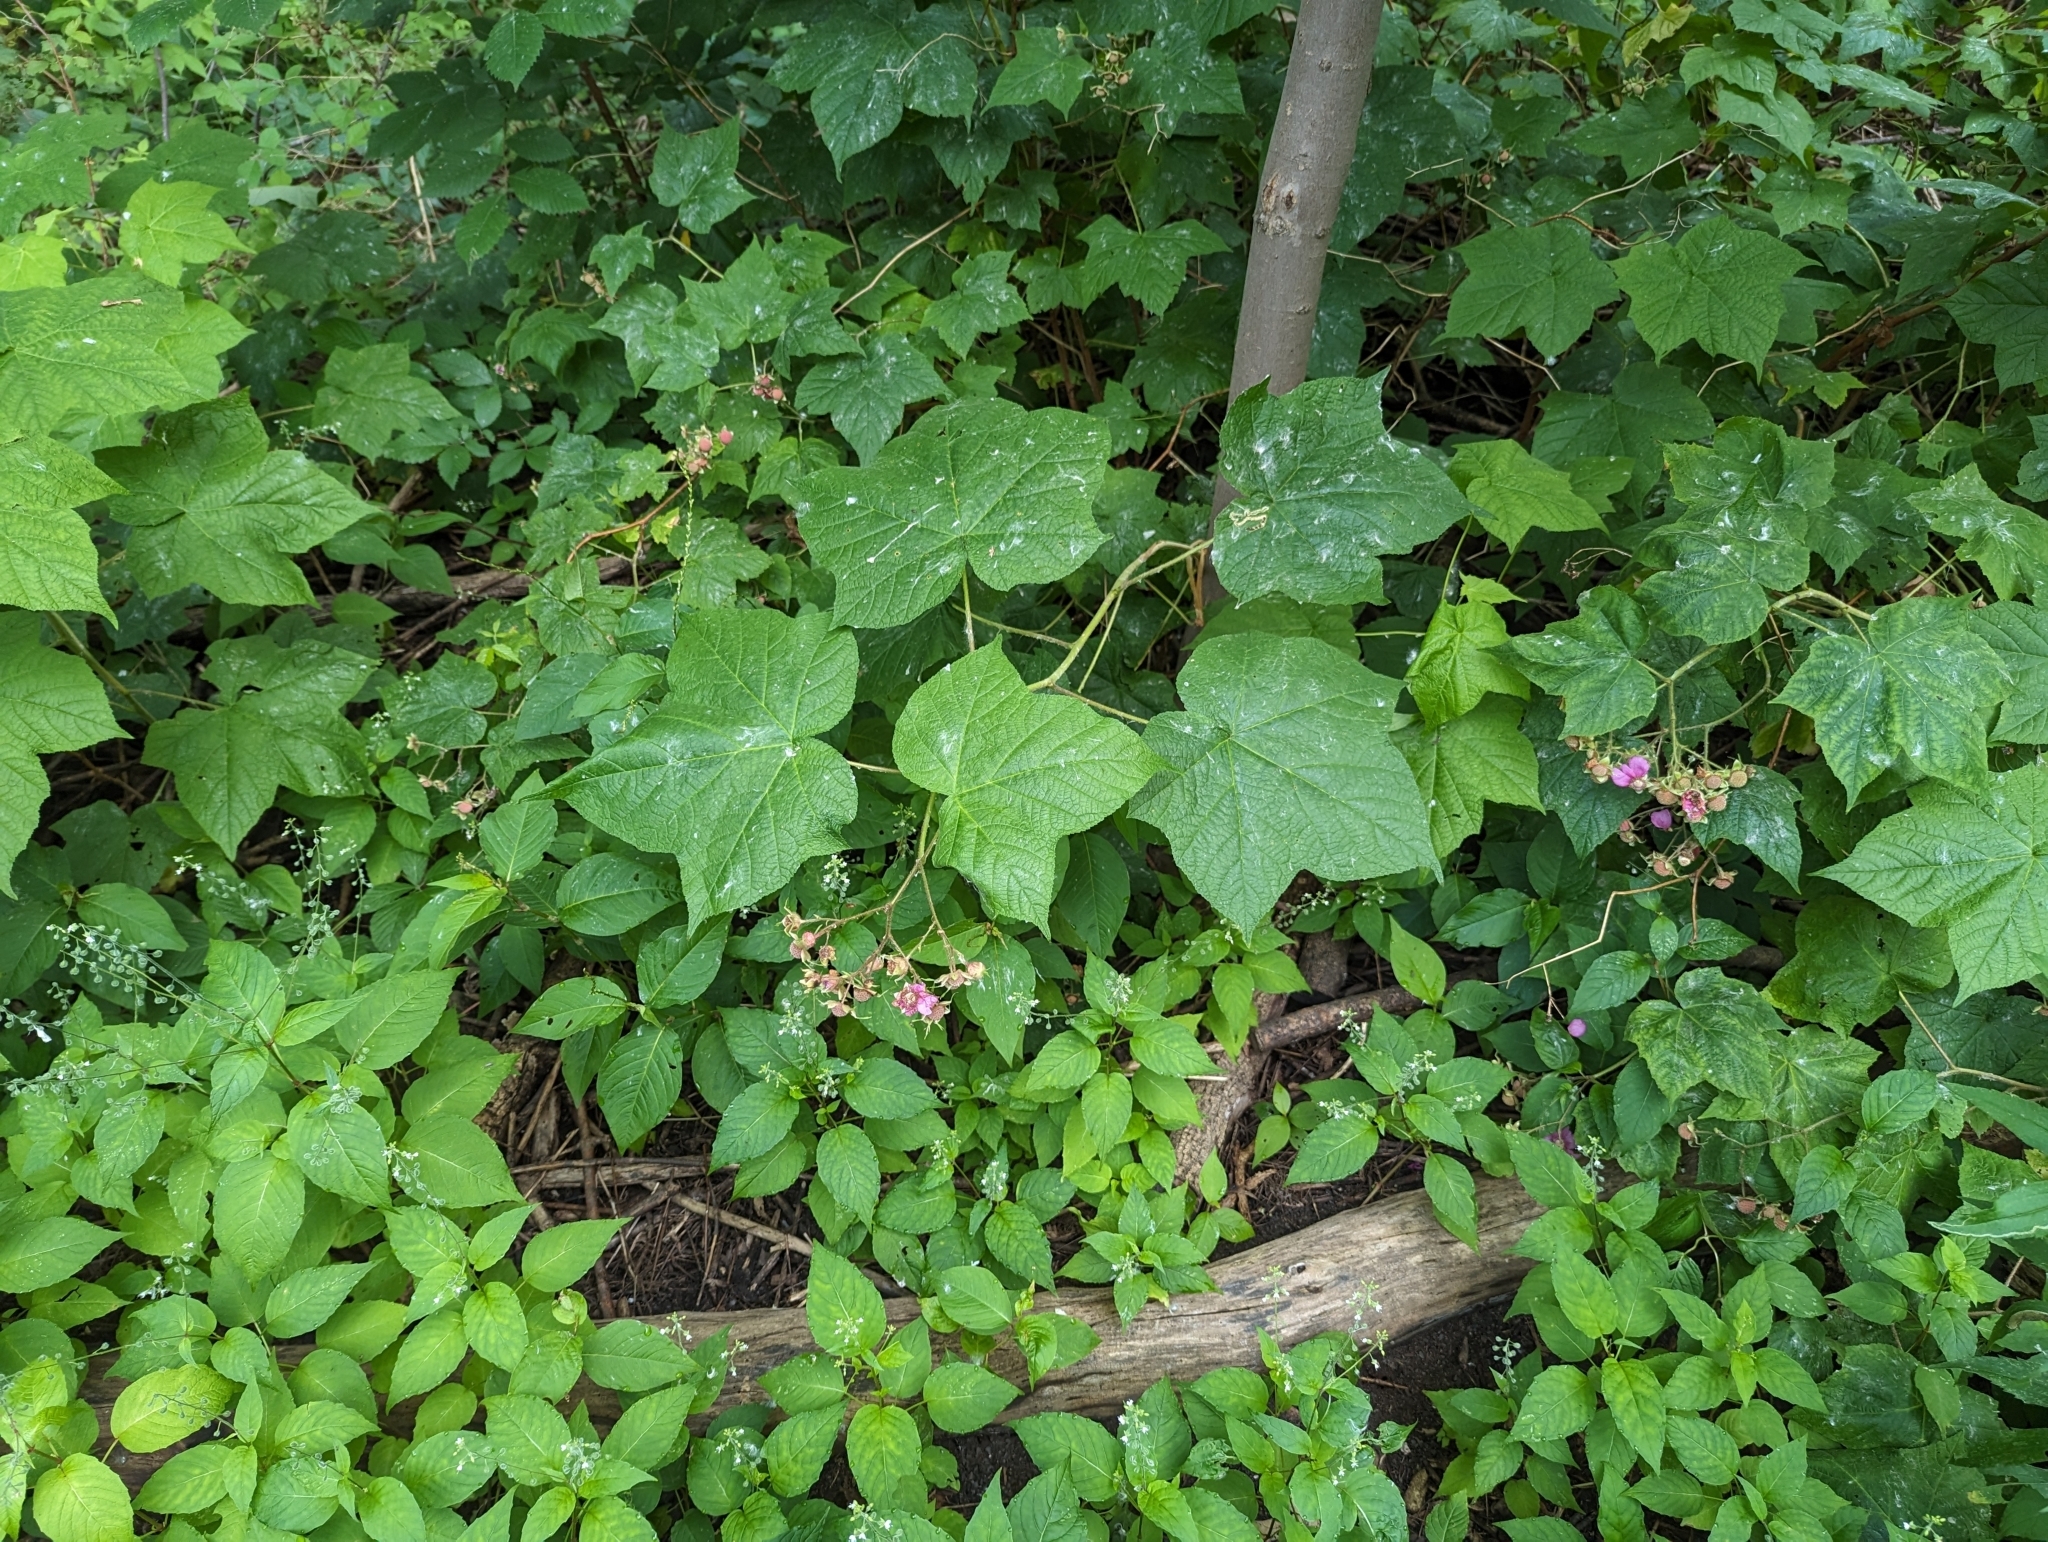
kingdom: Plantae
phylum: Tracheophyta
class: Magnoliopsida
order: Rosales
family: Rosaceae
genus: Rubus
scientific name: Rubus odoratus
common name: Purple-flowered raspberry
